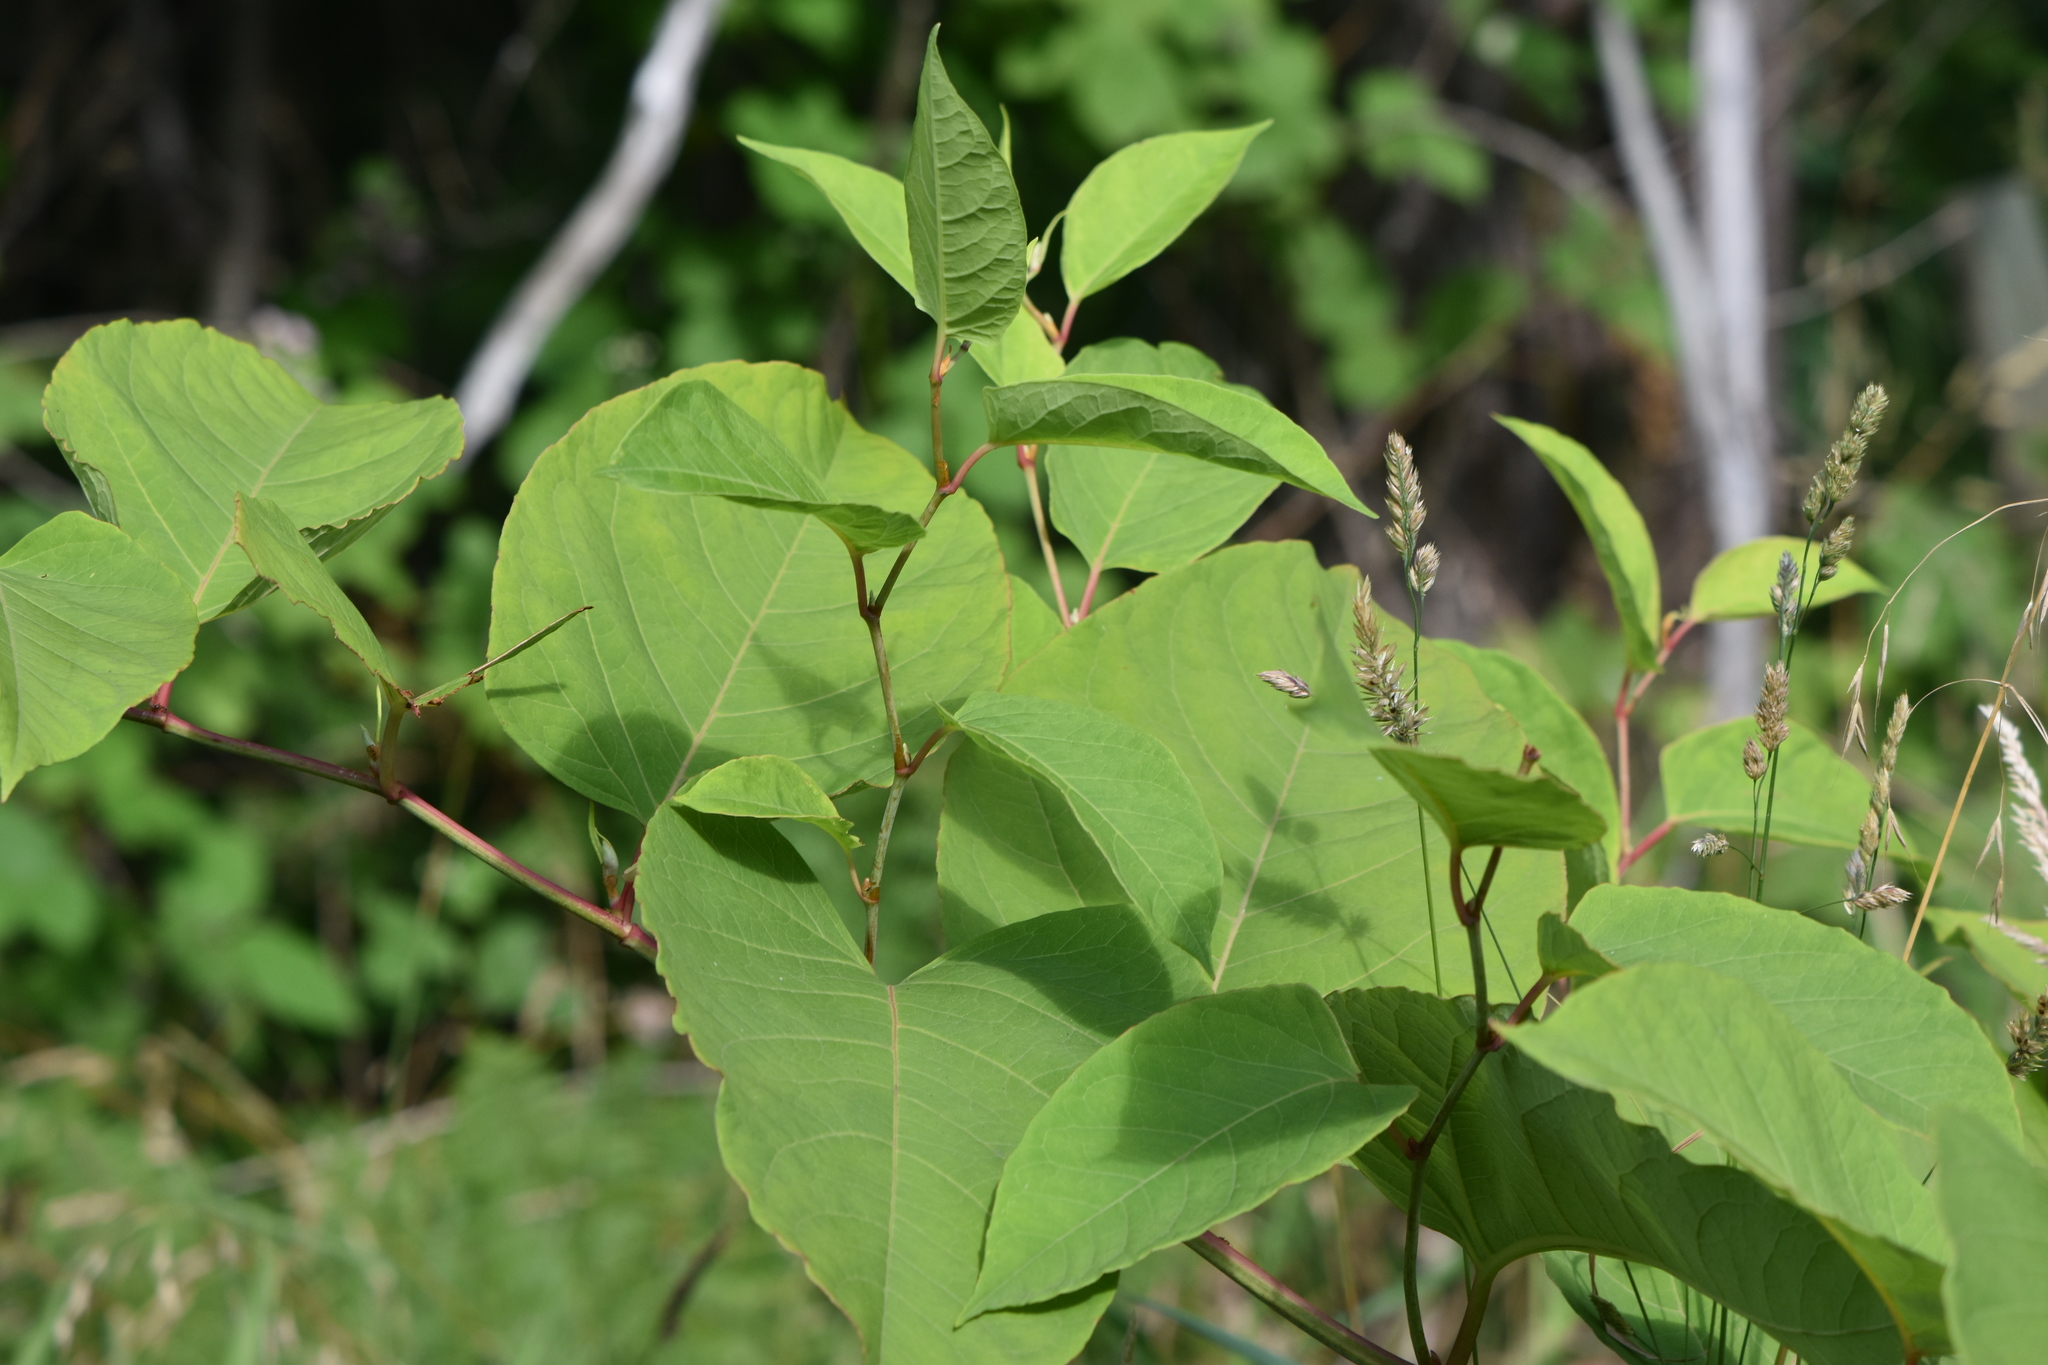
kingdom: Plantae
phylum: Tracheophyta
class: Magnoliopsida
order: Caryophyllales
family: Polygonaceae
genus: Reynoutria
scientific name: Reynoutria japonica
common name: Japanese knotweed
